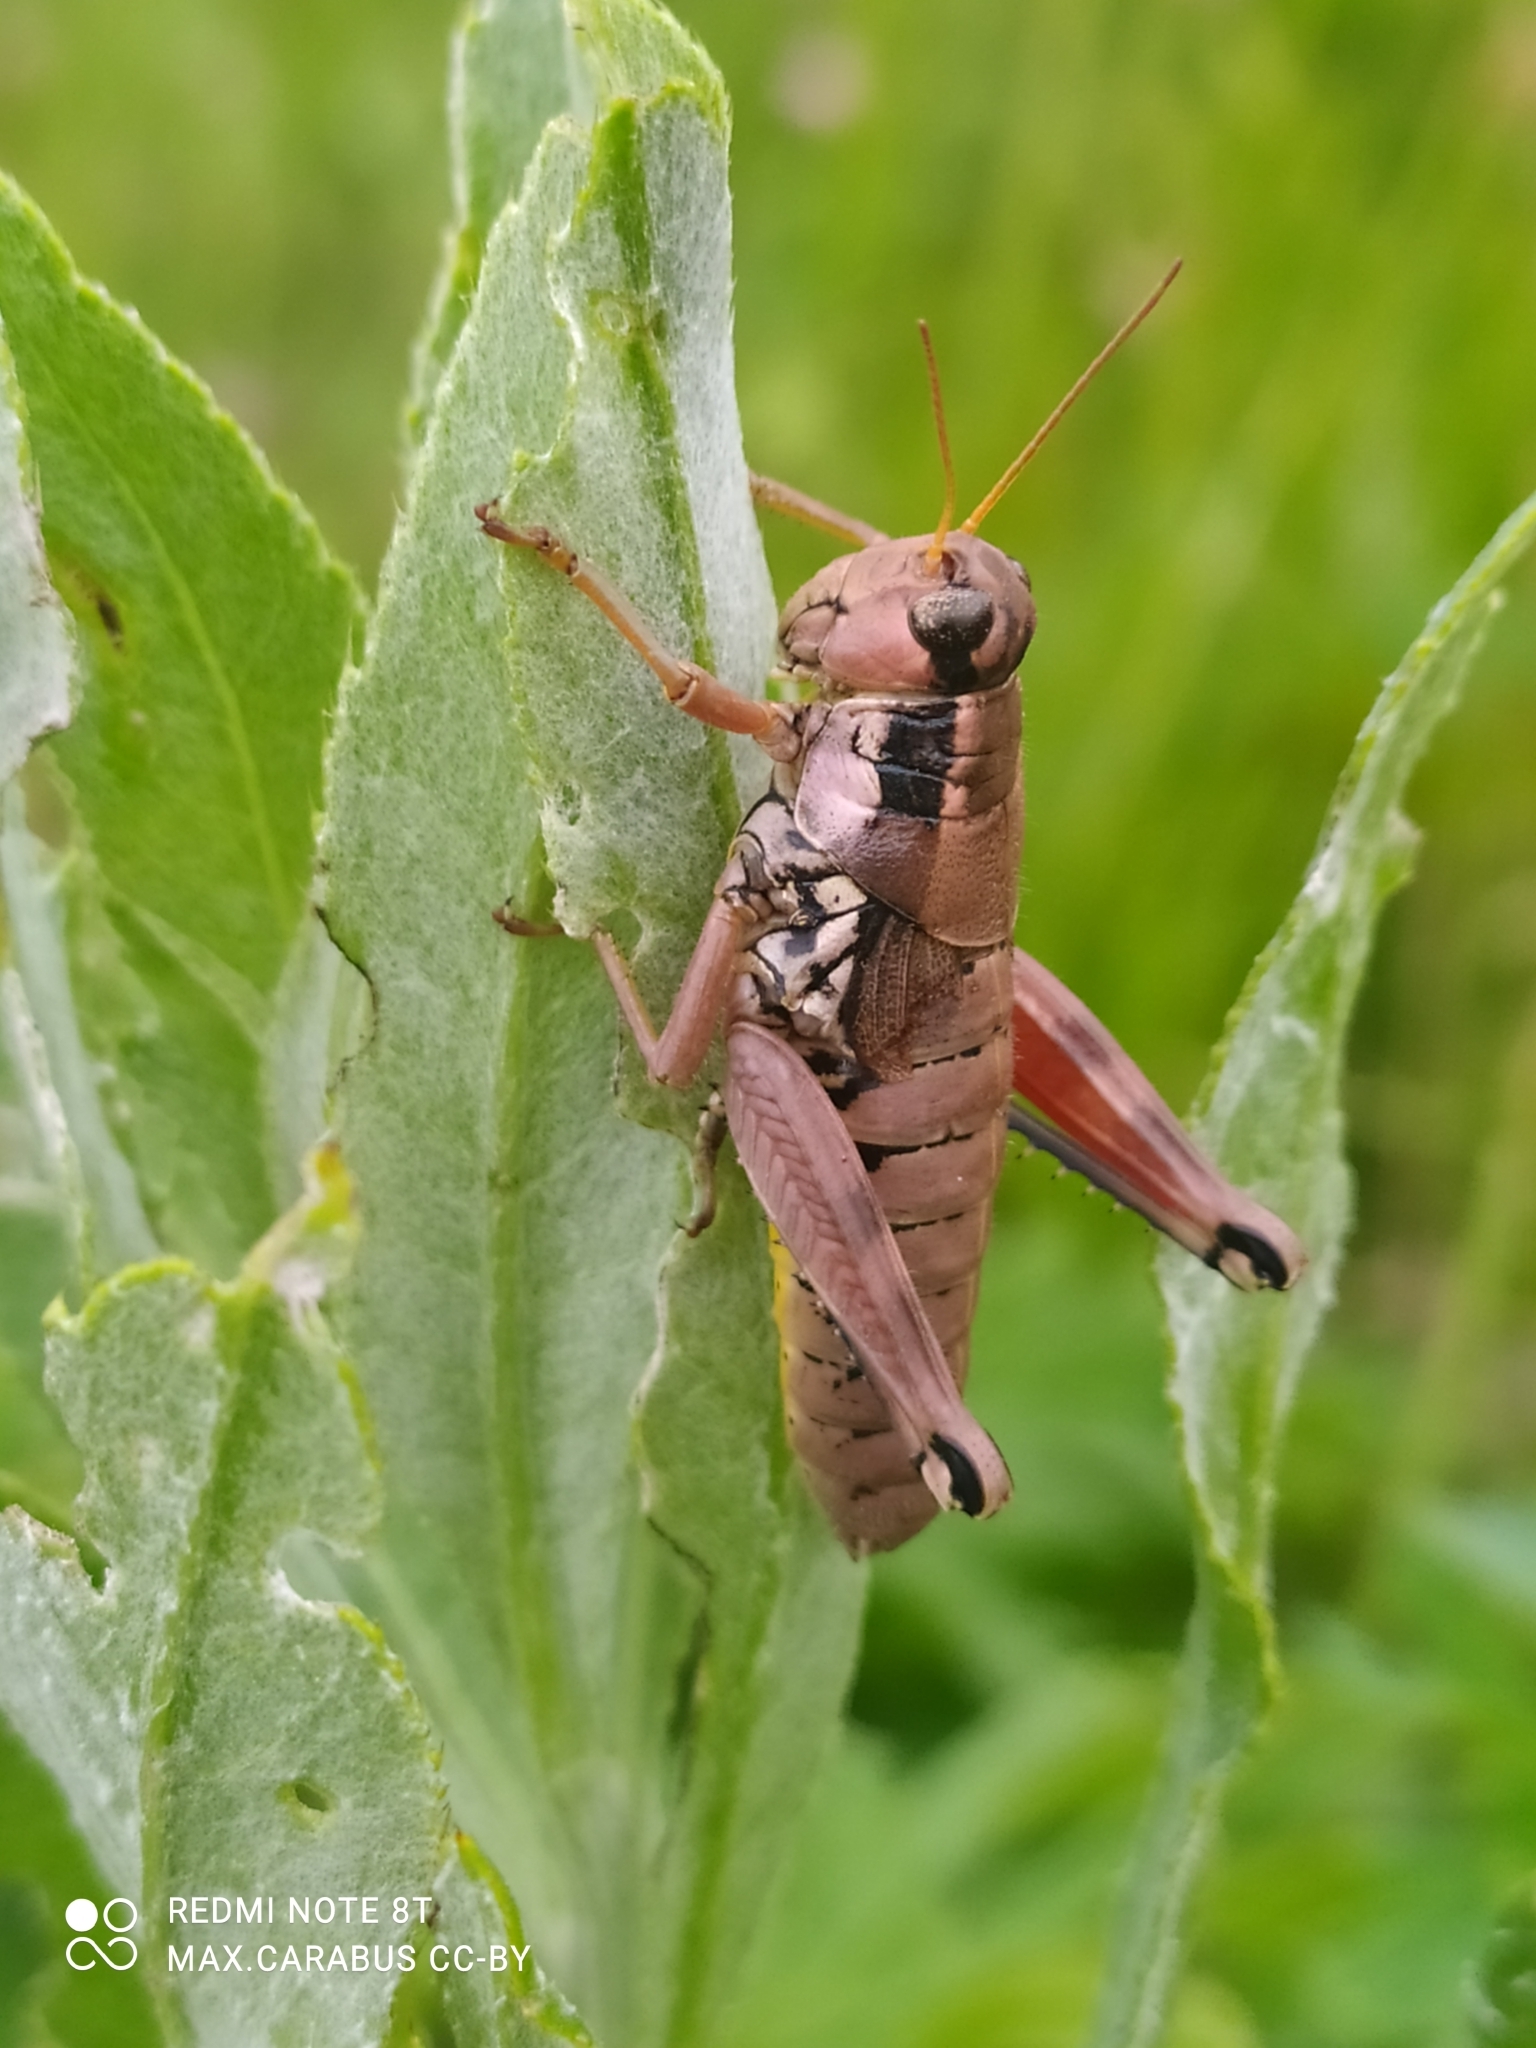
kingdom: Animalia
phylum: Arthropoda
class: Insecta
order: Orthoptera
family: Acrididae
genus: Podisma
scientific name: Podisma pedestris
